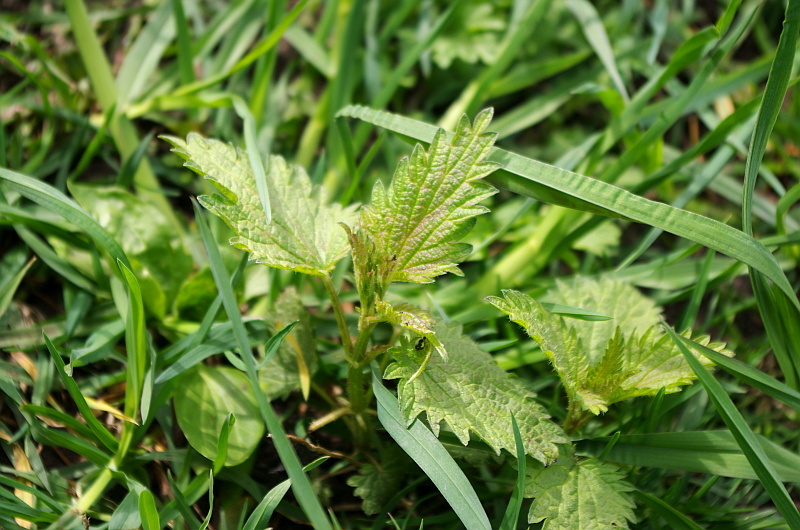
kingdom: Plantae
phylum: Tracheophyta
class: Magnoliopsida
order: Rosales
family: Urticaceae
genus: Urtica
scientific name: Urtica dioica
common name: Common nettle
